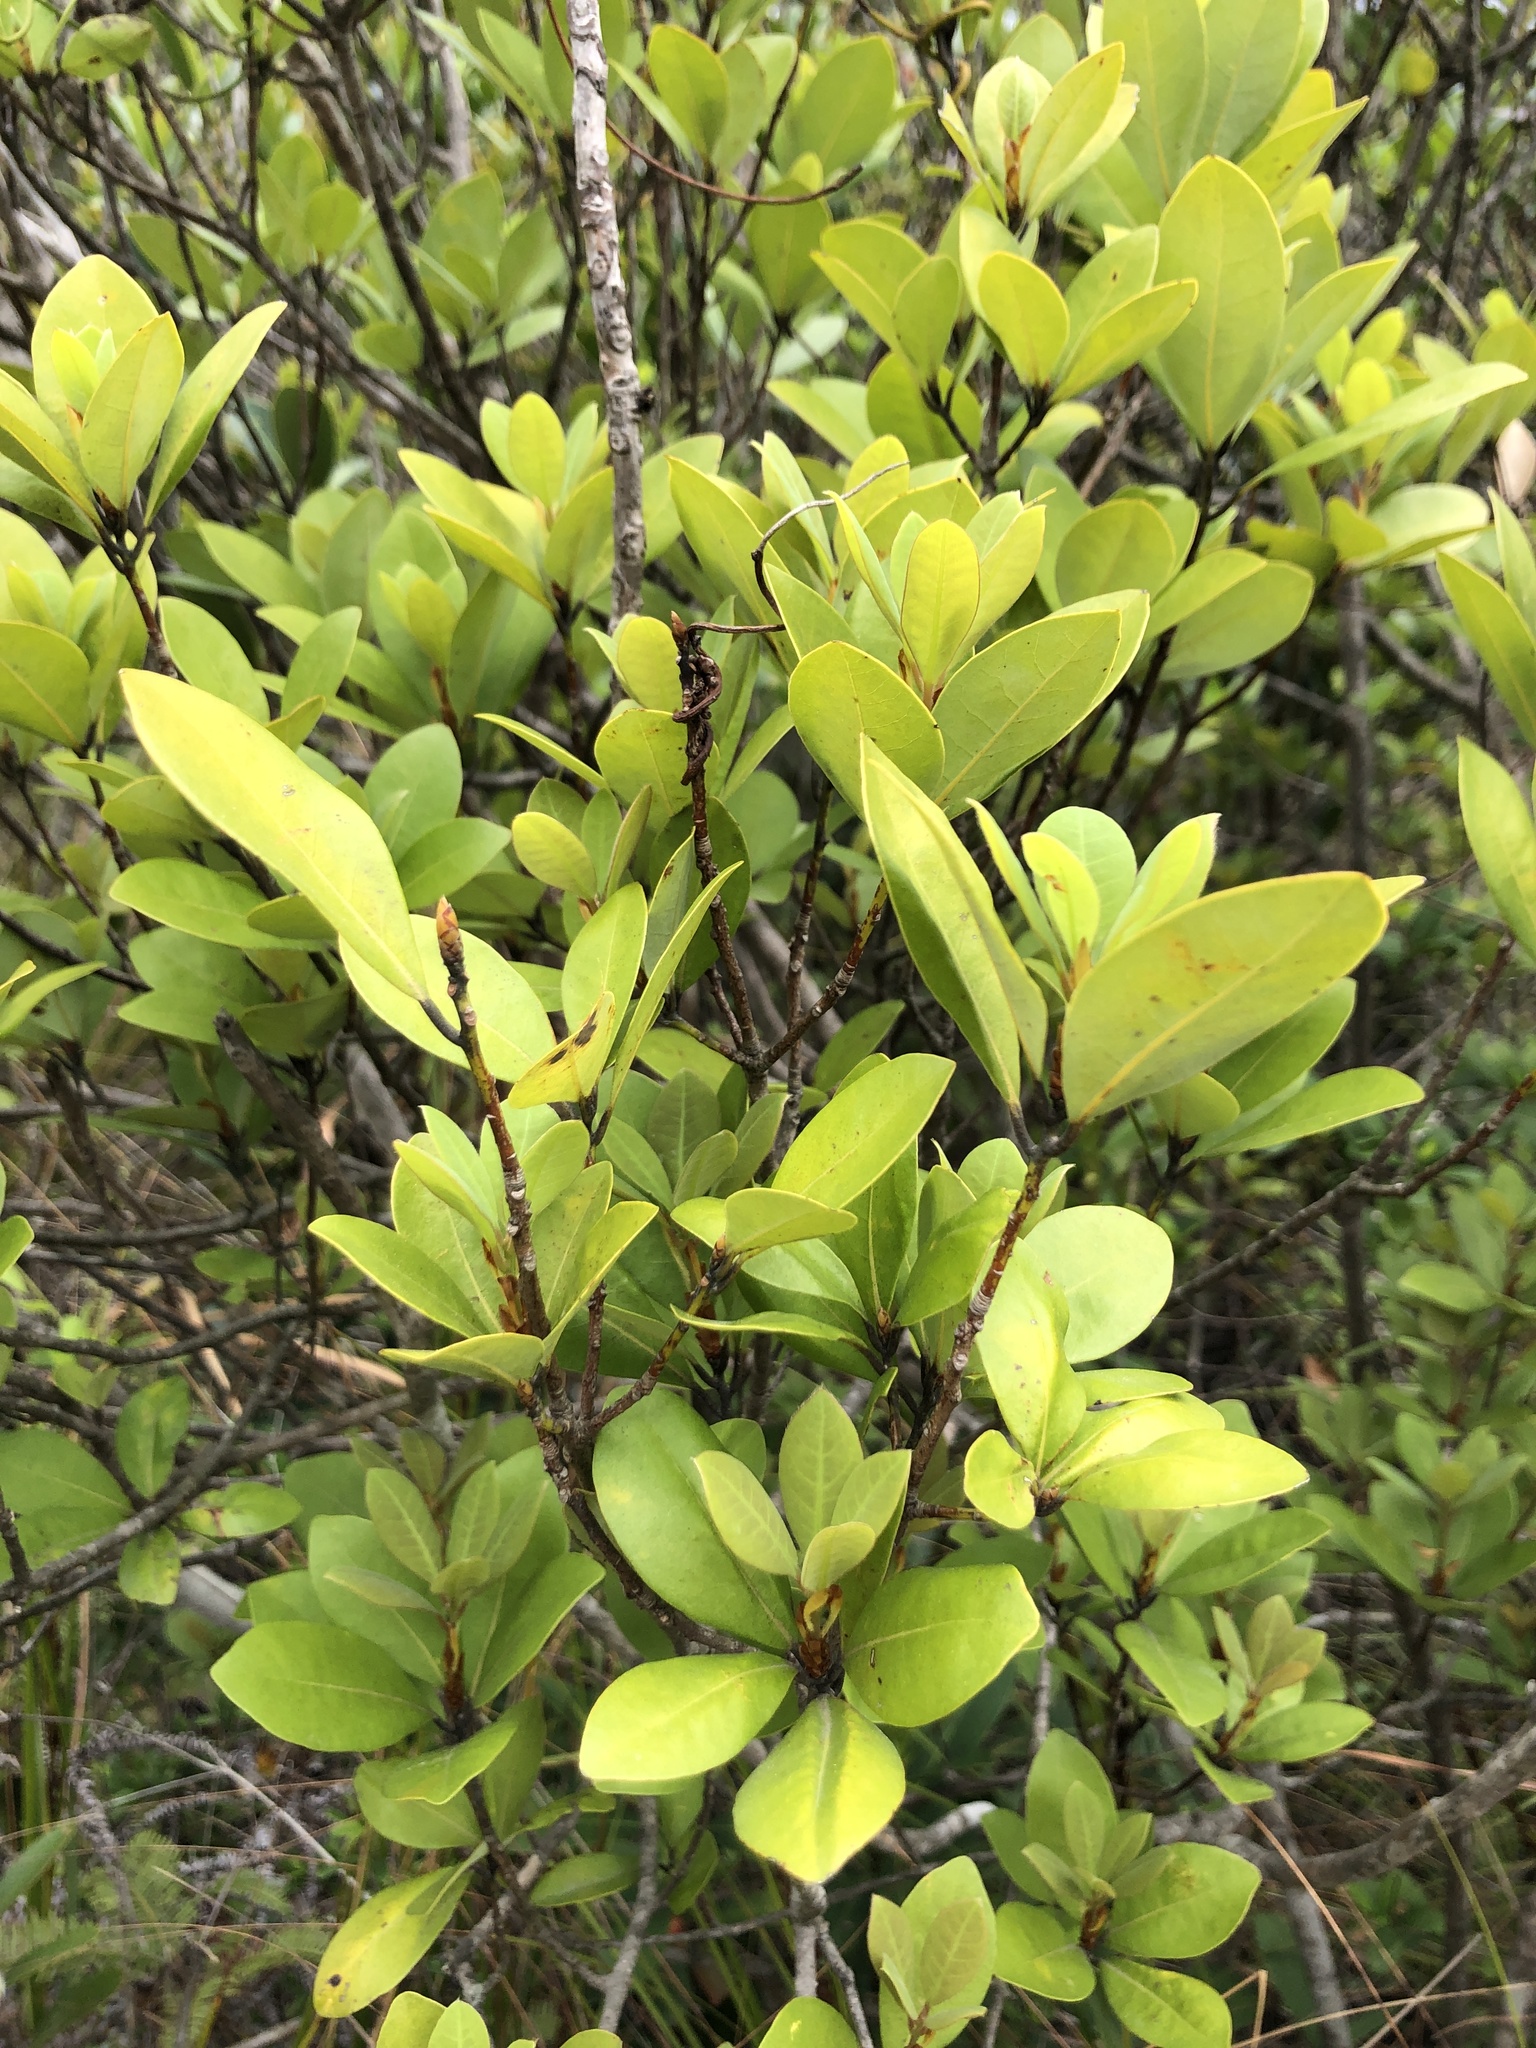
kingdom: Plantae
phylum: Tracheophyta
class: Magnoliopsida
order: Ericales
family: Theaceae
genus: Polyspora
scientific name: Polyspora axillaris
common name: Fried egg tree
